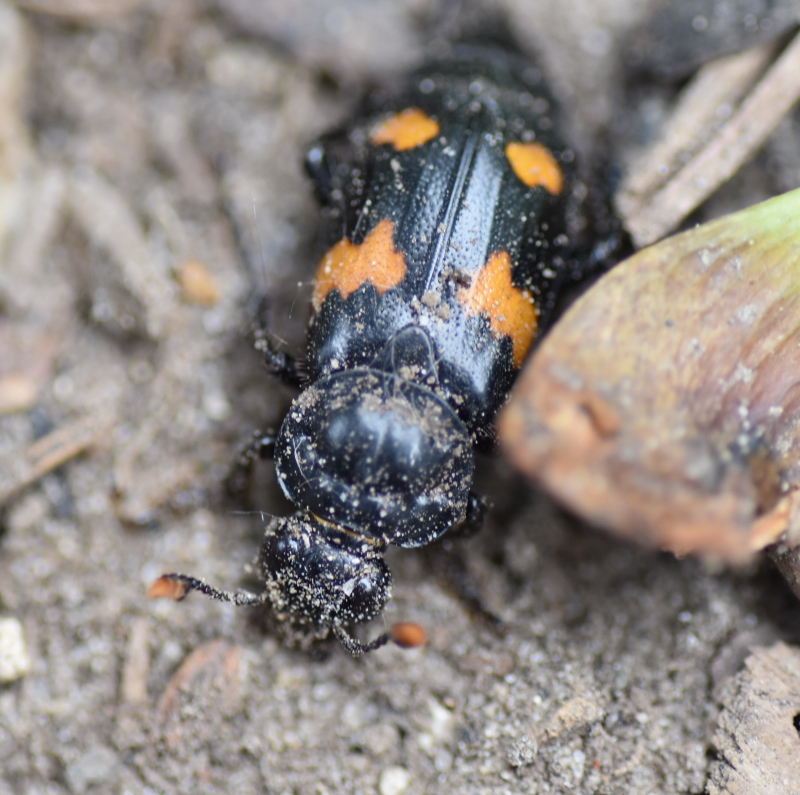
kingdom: Animalia
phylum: Arthropoda
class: Insecta
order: Coleoptera
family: Staphylinidae
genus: Nicrophorus
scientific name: Nicrophorus orbicollis
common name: Roundneck sexton beetle
